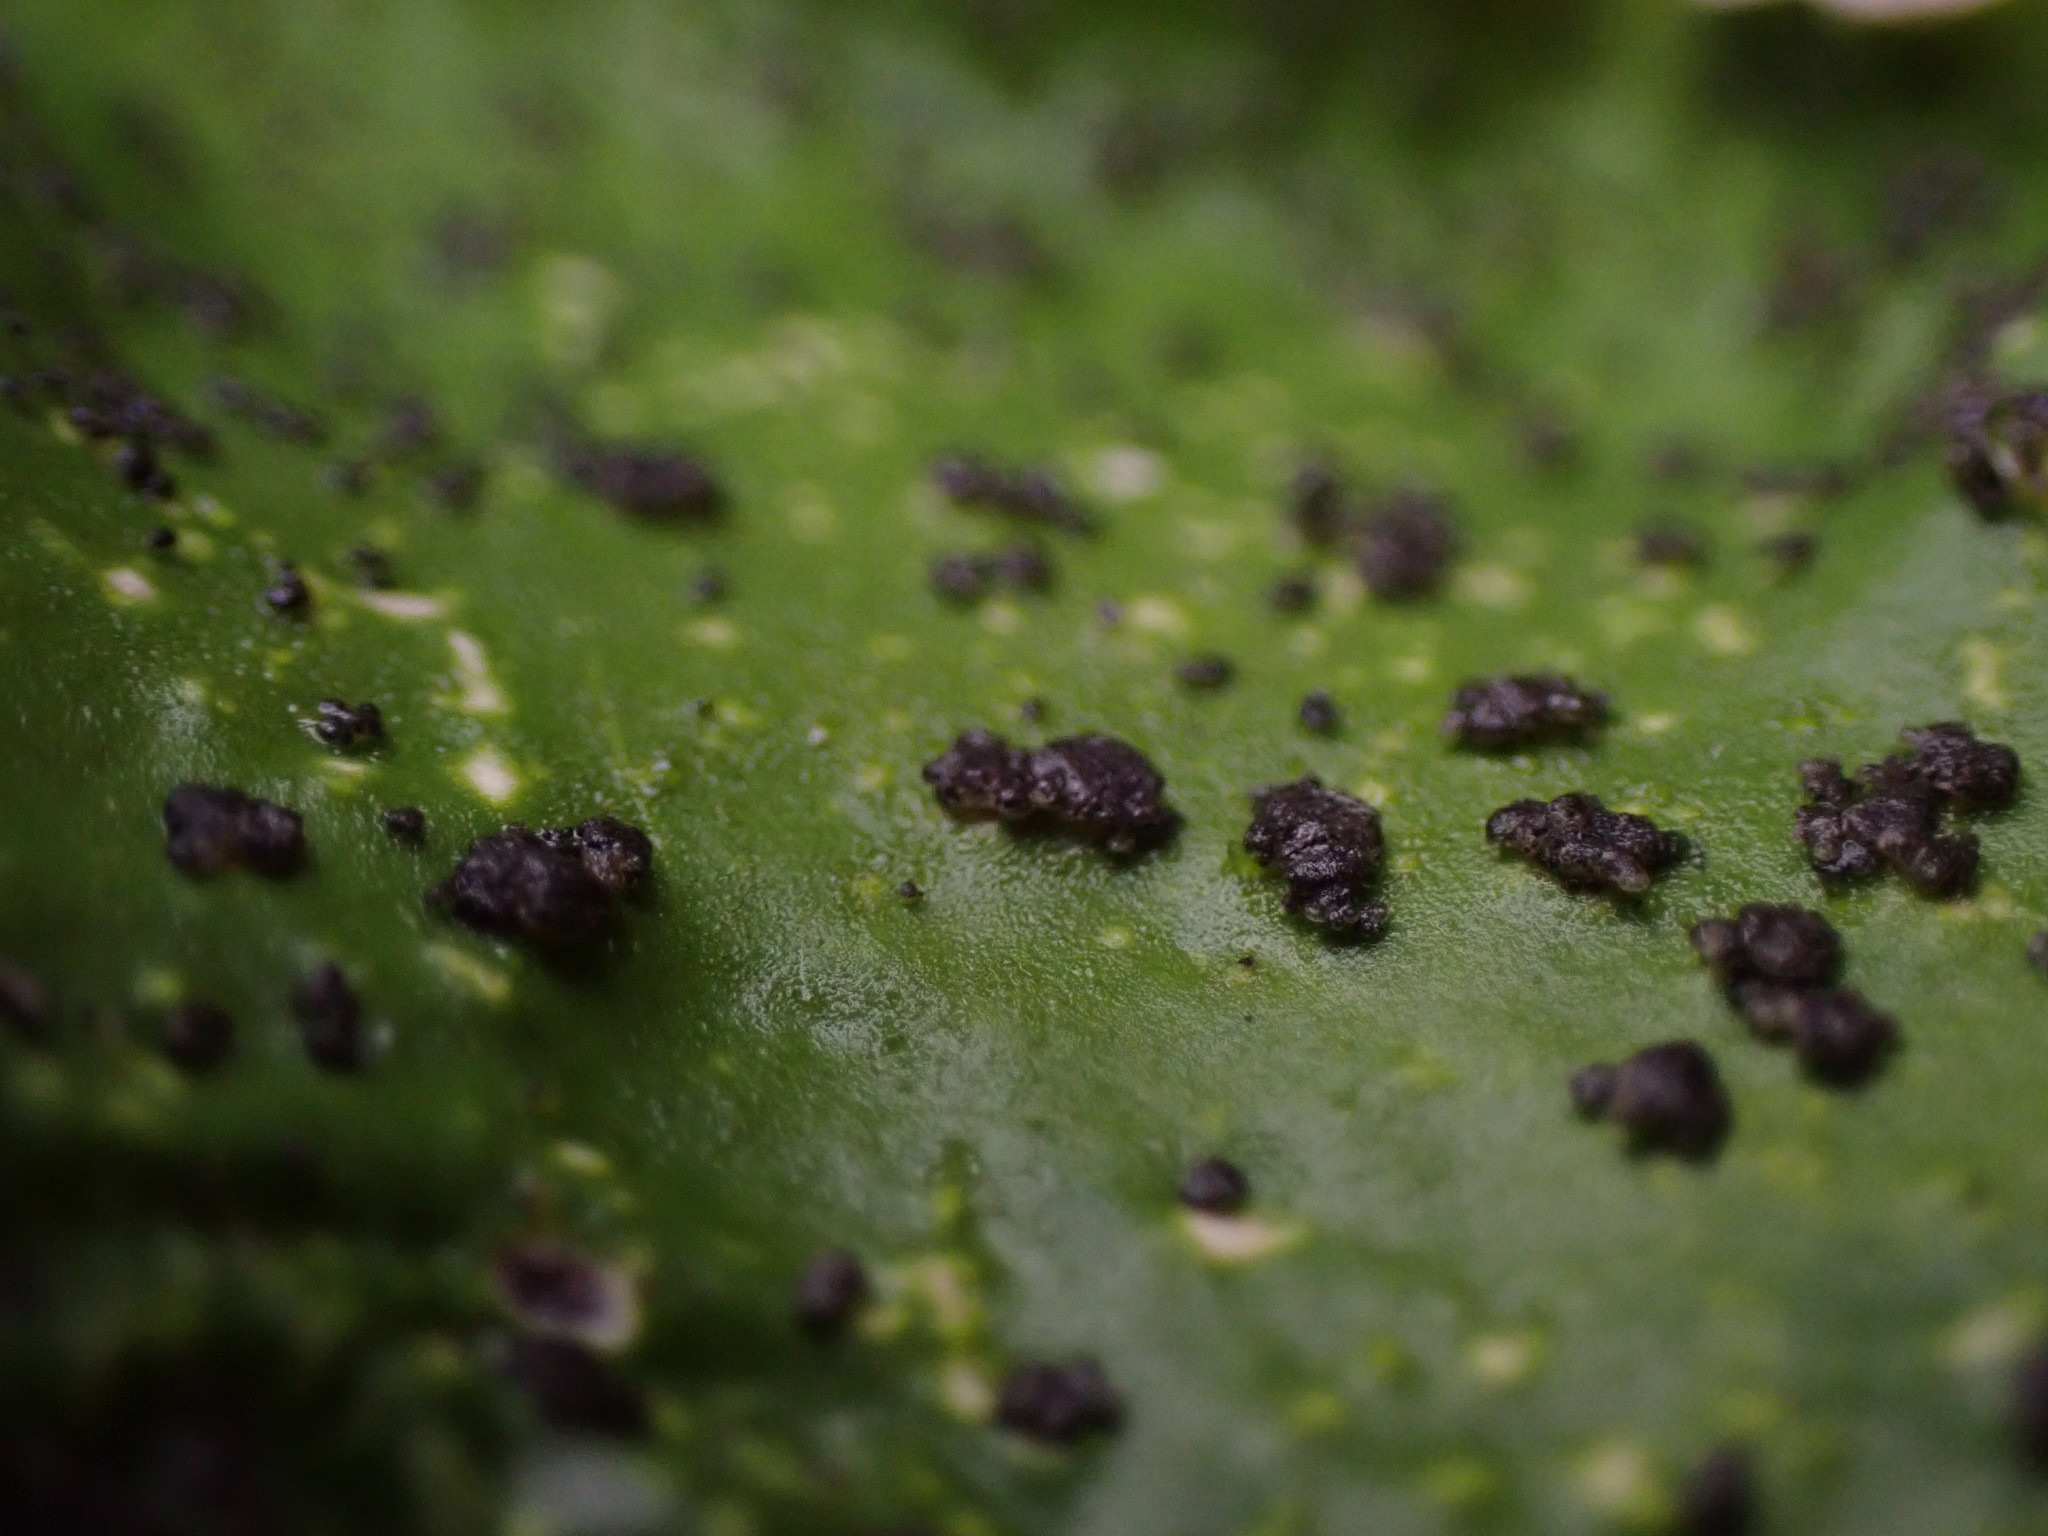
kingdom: Fungi
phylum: Ascomycota
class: Lecanoromycetes
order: Peltigerales
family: Peltigeraceae
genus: Peltigera
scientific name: Peltigera britannica
